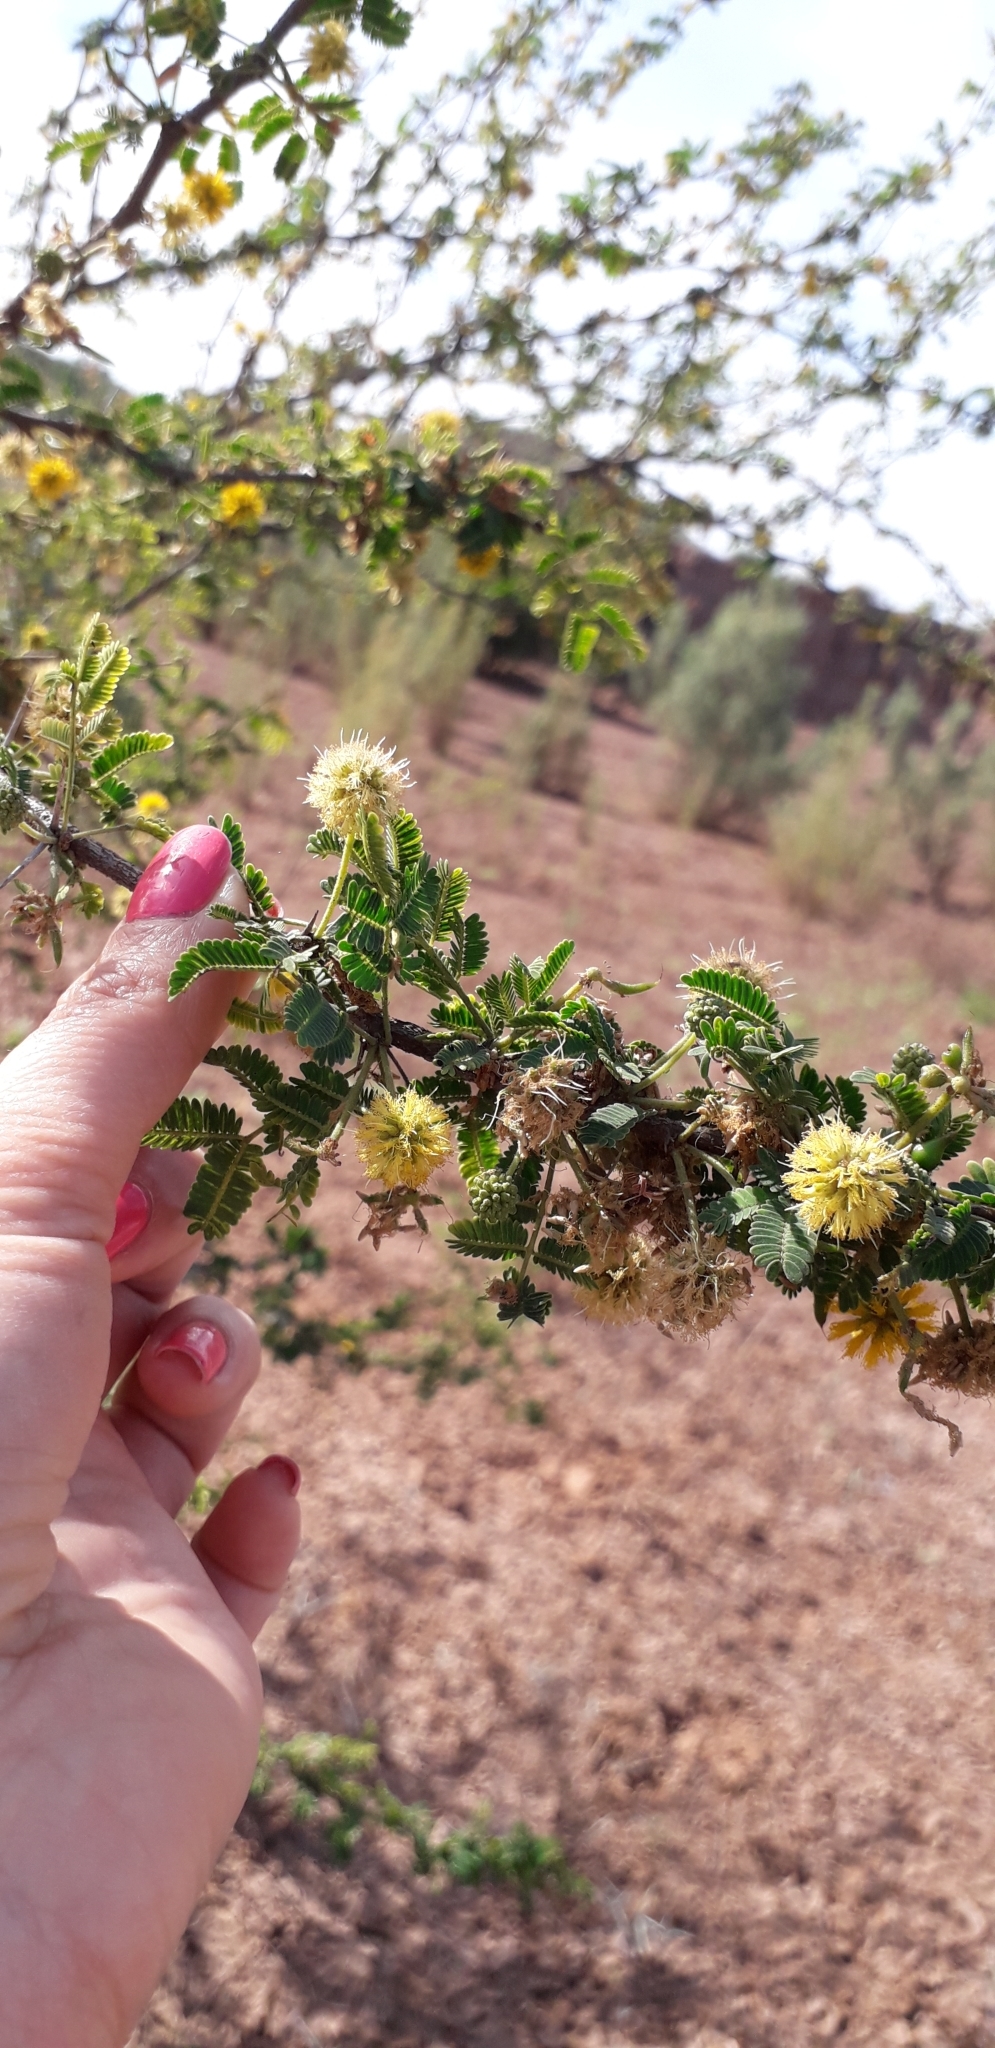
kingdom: Plantae
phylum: Tracheophyta
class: Magnoliopsida
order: Fabales
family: Fabaceae
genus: Vachellia
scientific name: Vachellia farnesiana
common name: Sweet acacia
